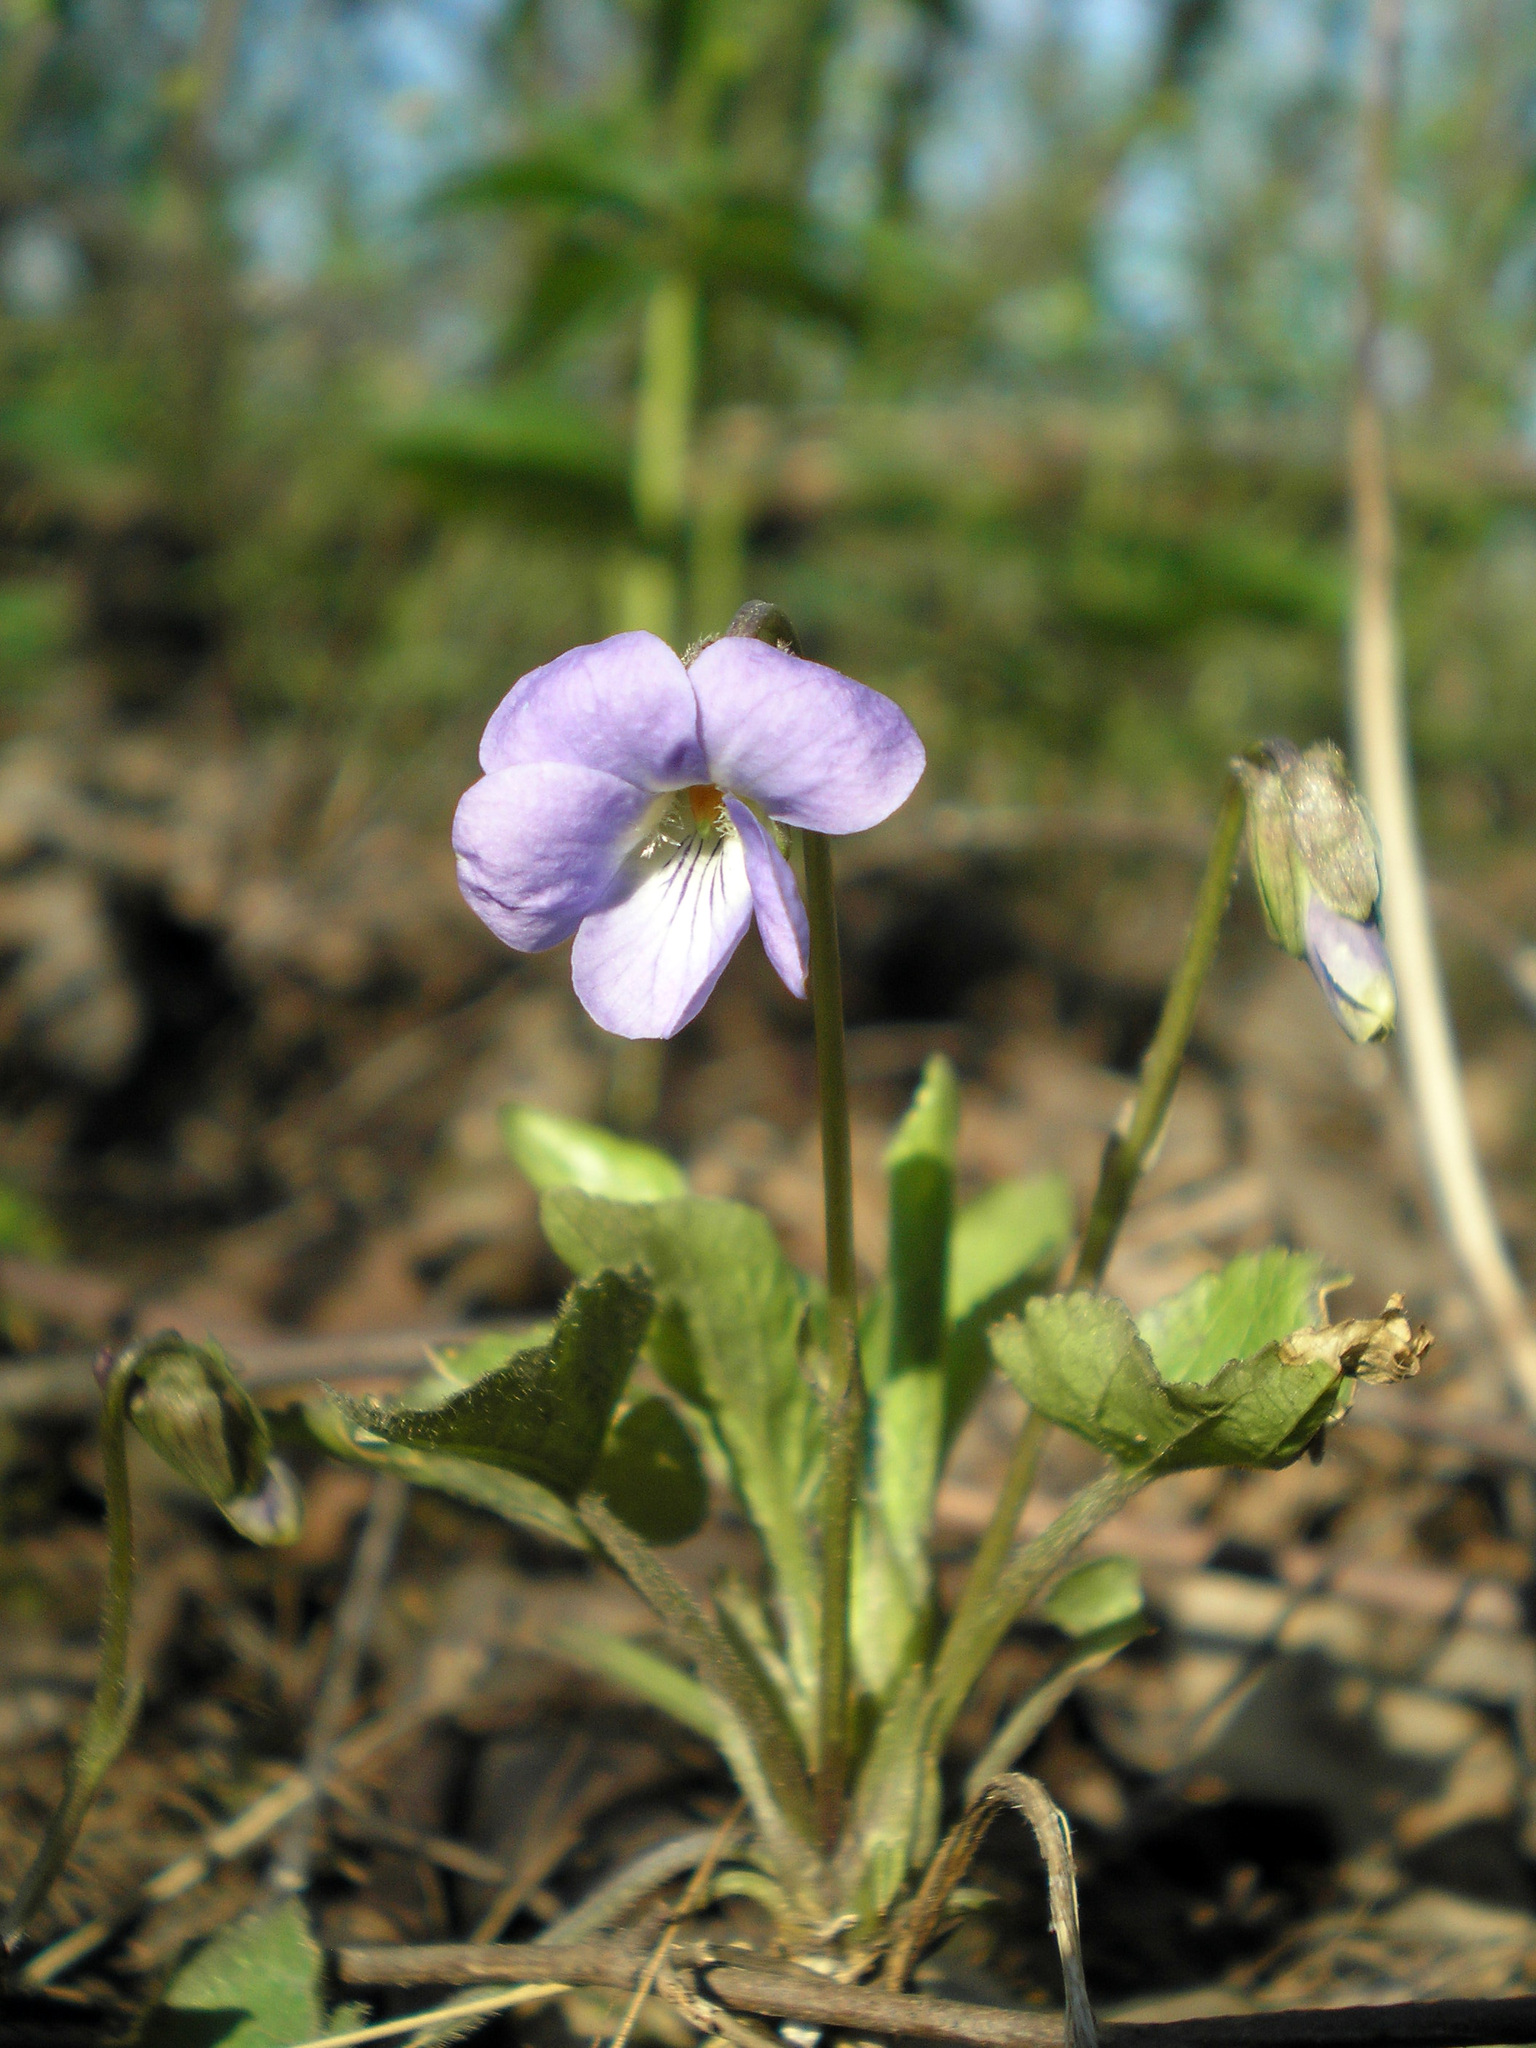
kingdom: Plantae
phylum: Tracheophyta
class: Magnoliopsida
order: Malpighiales
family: Violaceae
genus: Viola
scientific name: Viola collina
